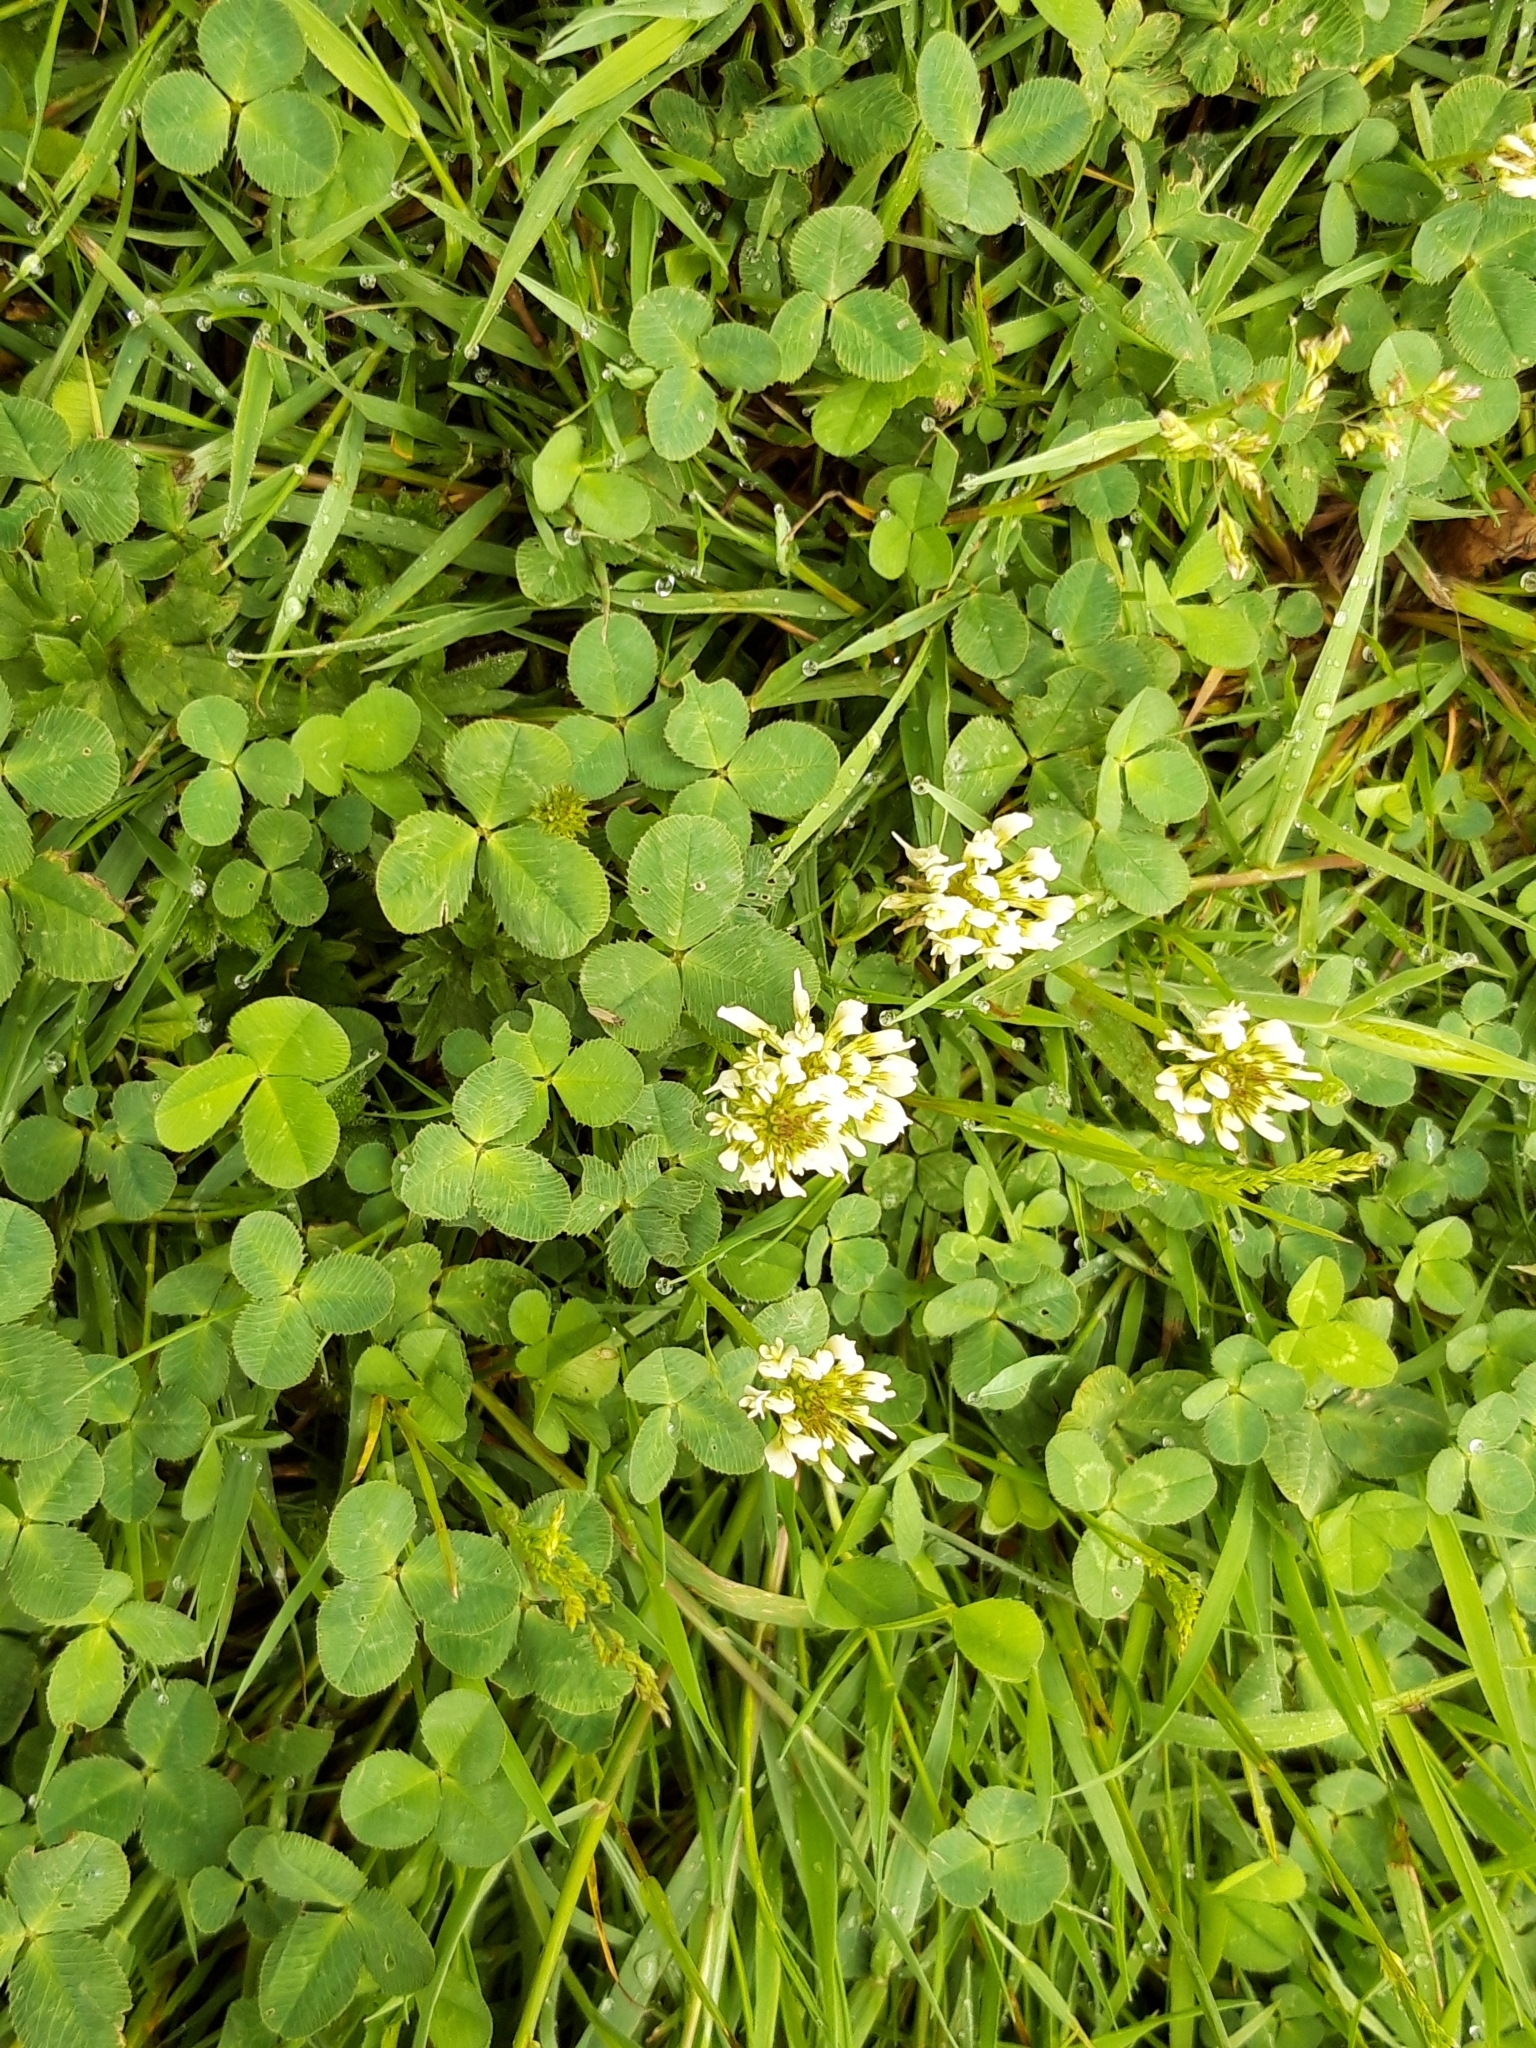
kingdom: Plantae
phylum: Tracheophyta
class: Magnoliopsida
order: Fabales
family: Fabaceae
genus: Trifolium
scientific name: Trifolium repens
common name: White clover
